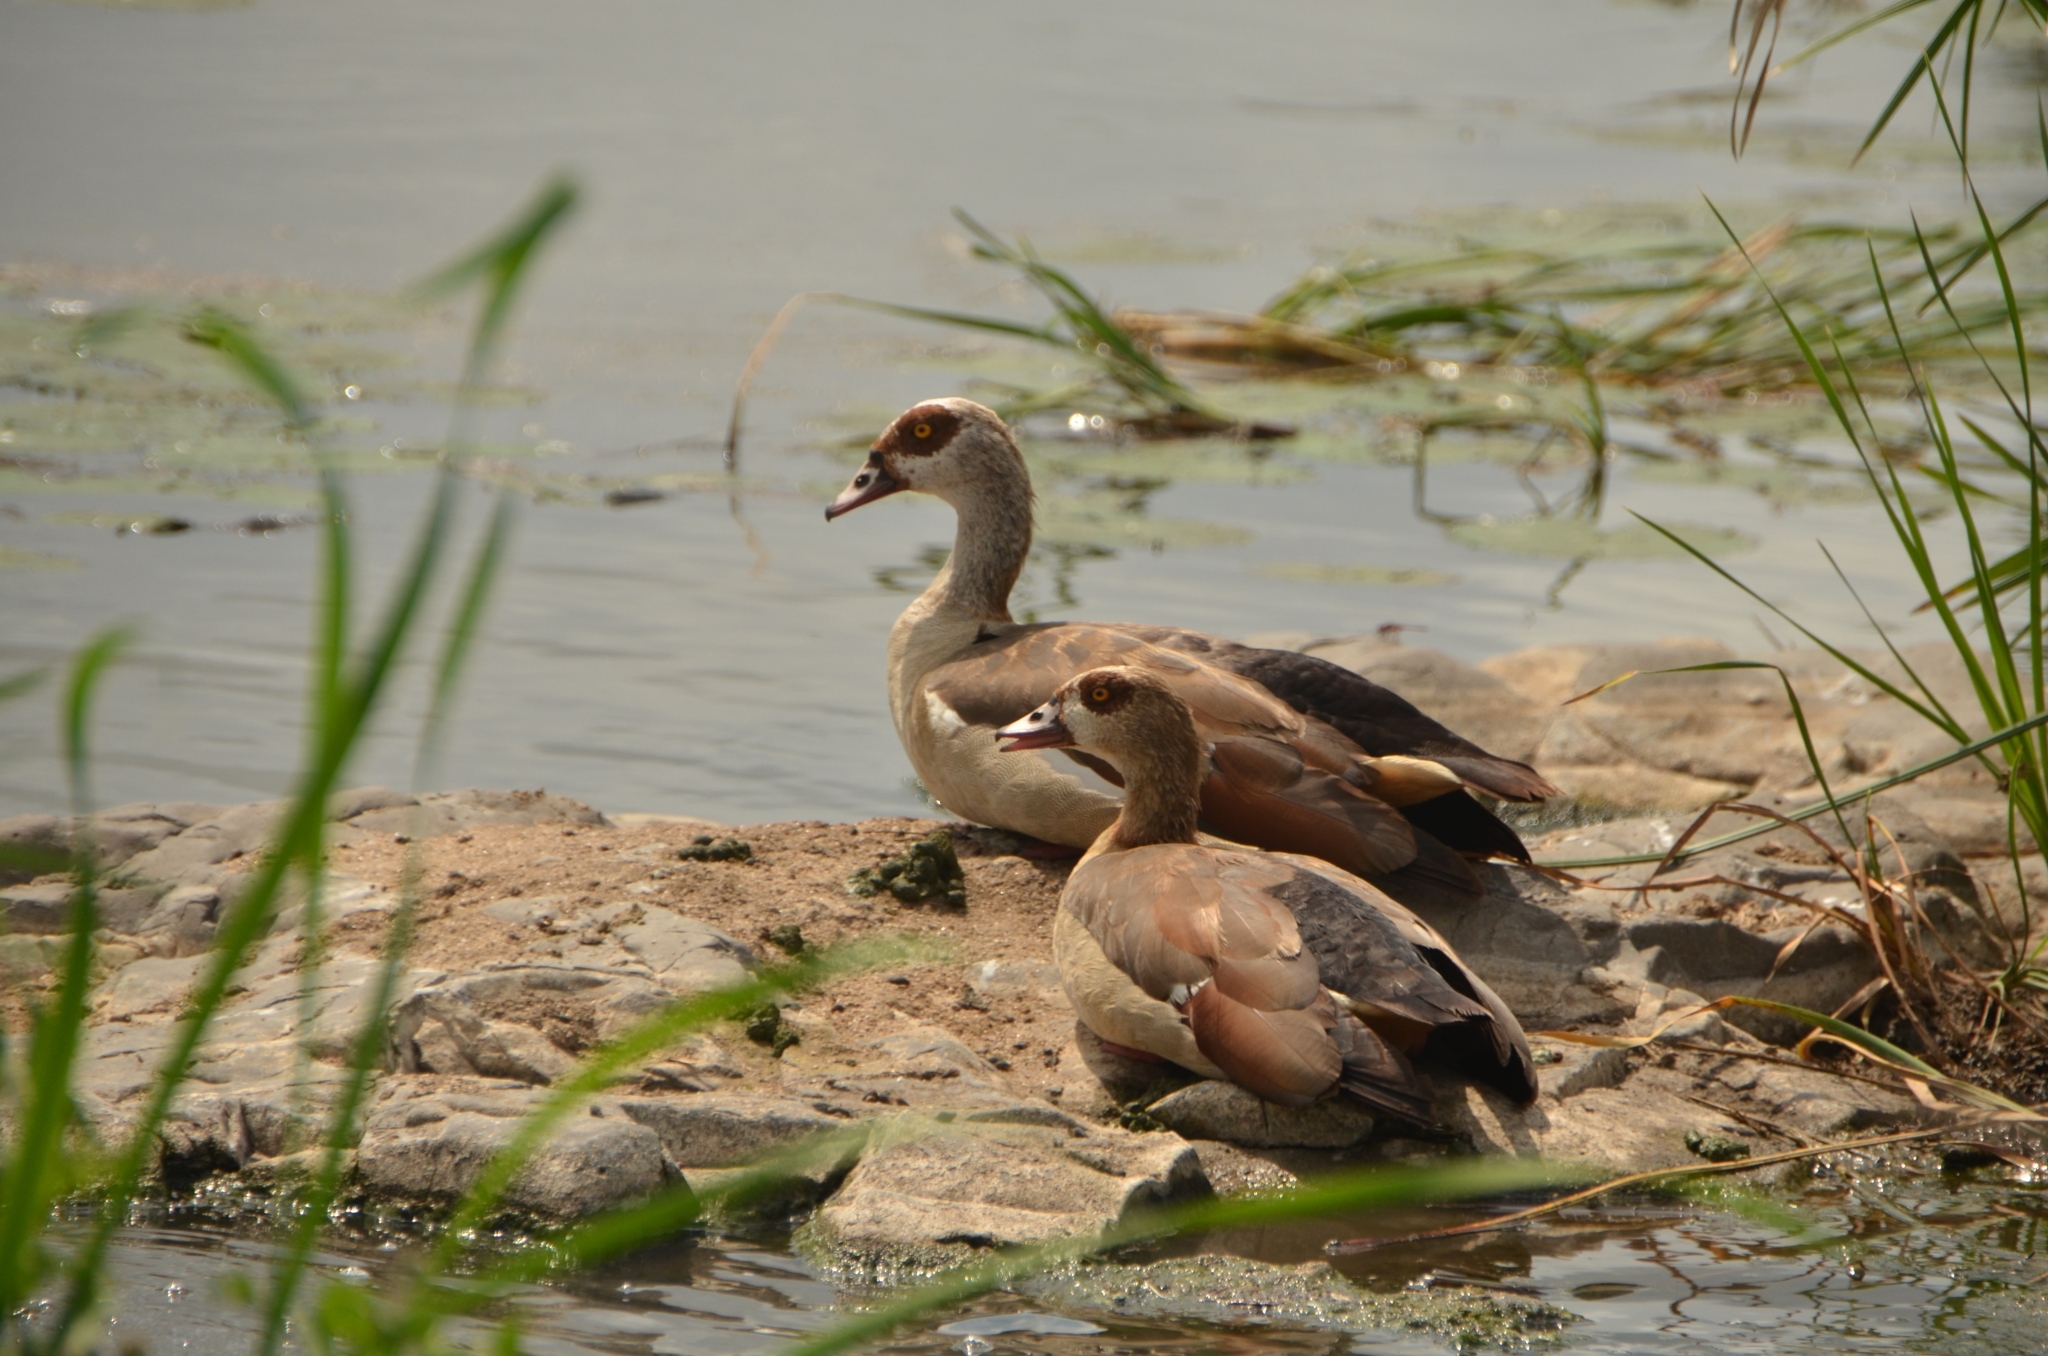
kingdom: Animalia
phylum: Chordata
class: Aves
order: Anseriformes
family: Anatidae
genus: Alopochen
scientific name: Alopochen aegyptiaca
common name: Egyptian goose
